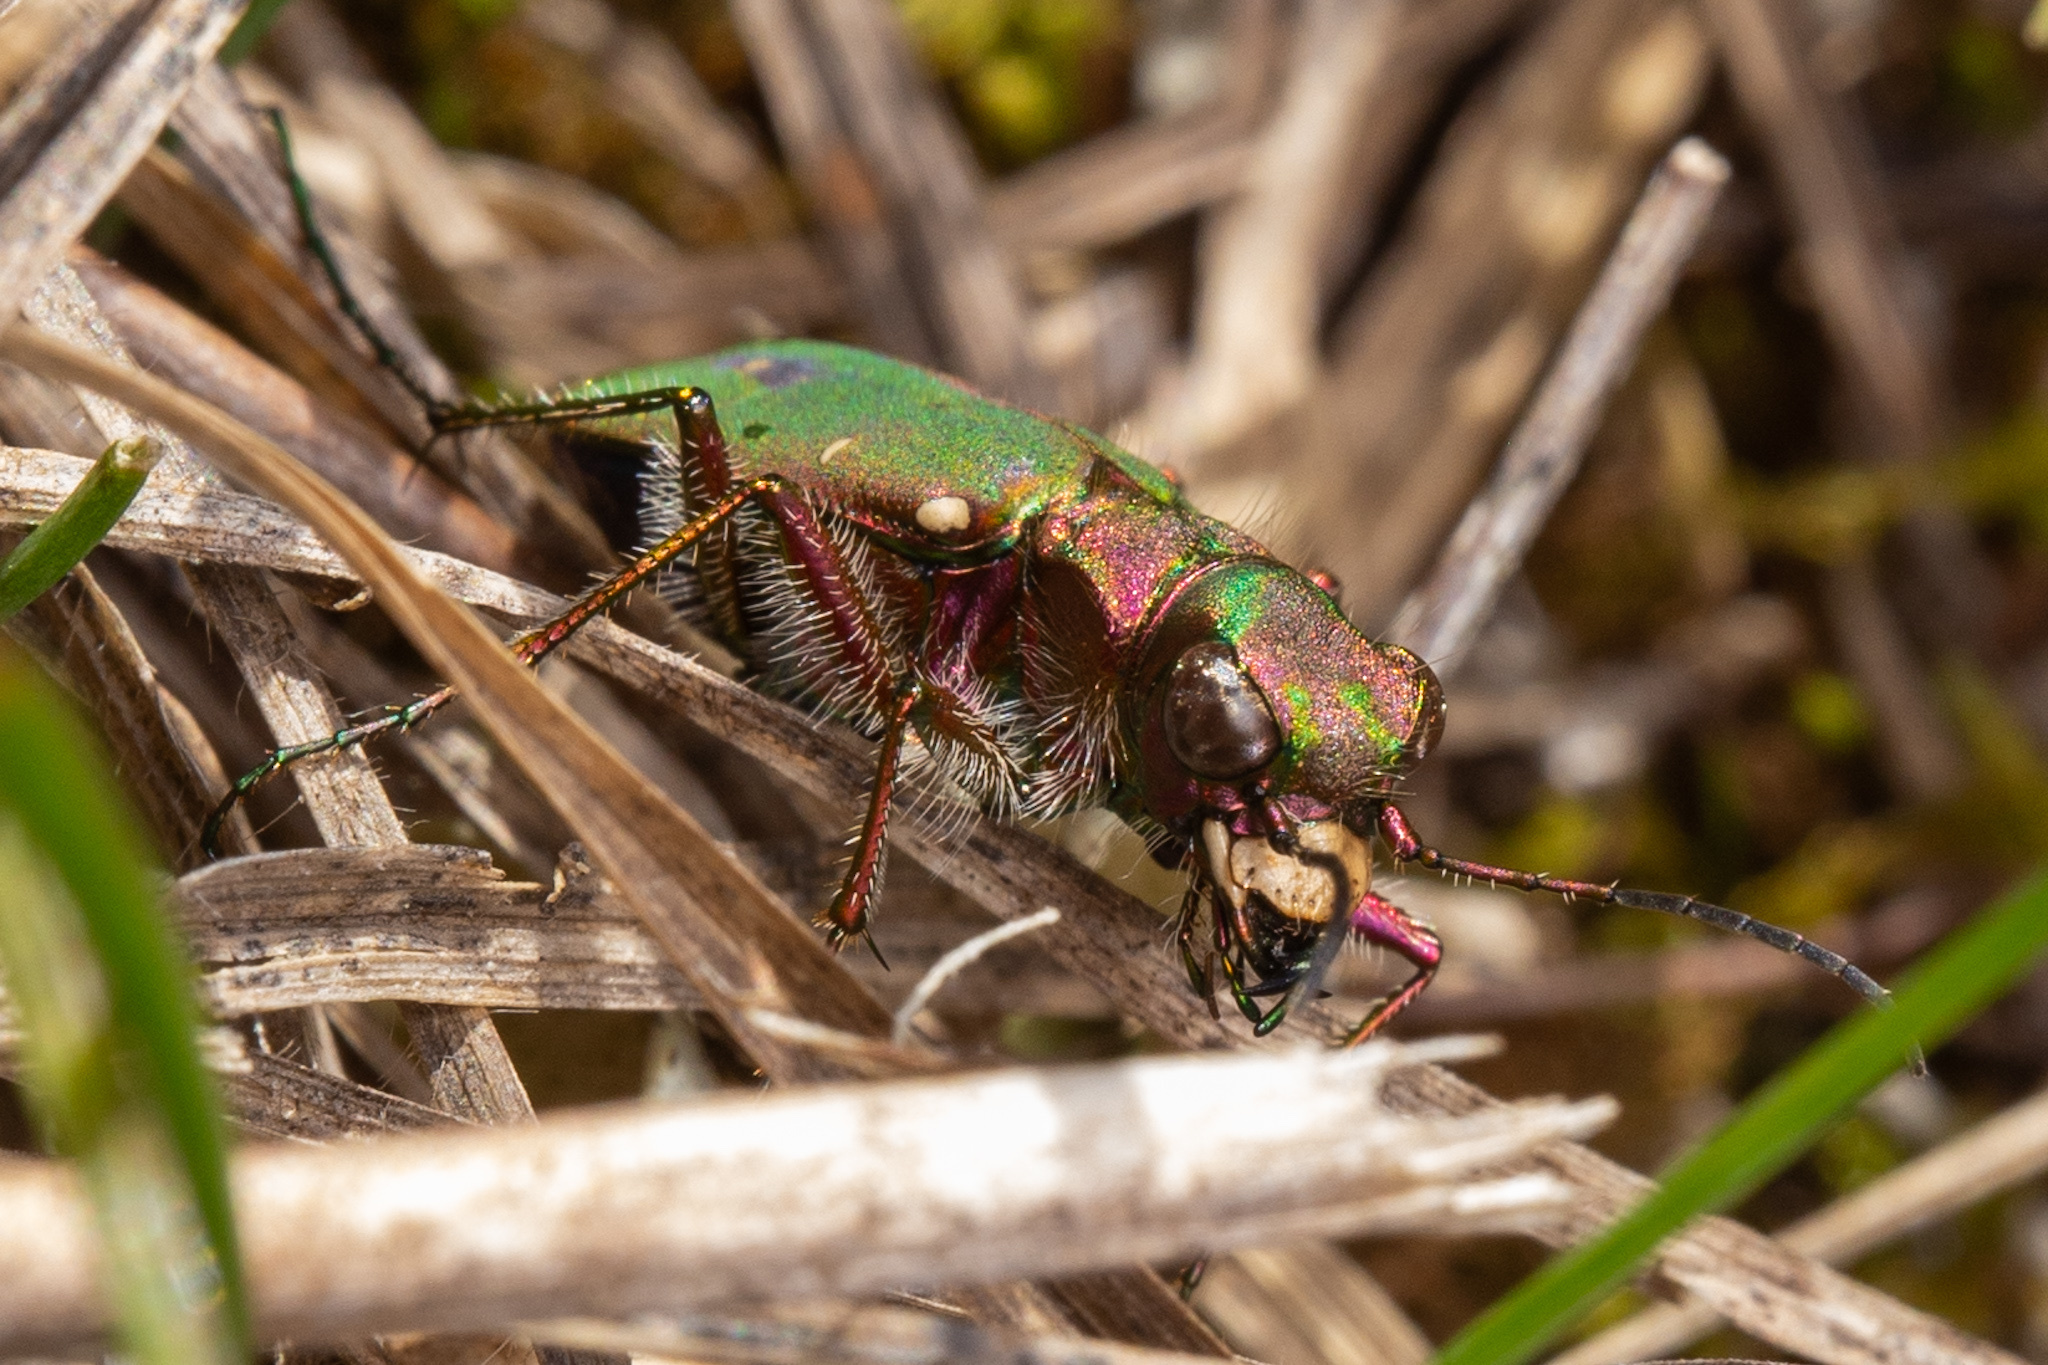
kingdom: Animalia
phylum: Arthropoda
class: Insecta
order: Coleoptera
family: Carabidae
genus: Cicindela
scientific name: Cicindela campestris
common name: Common tiger beetle
